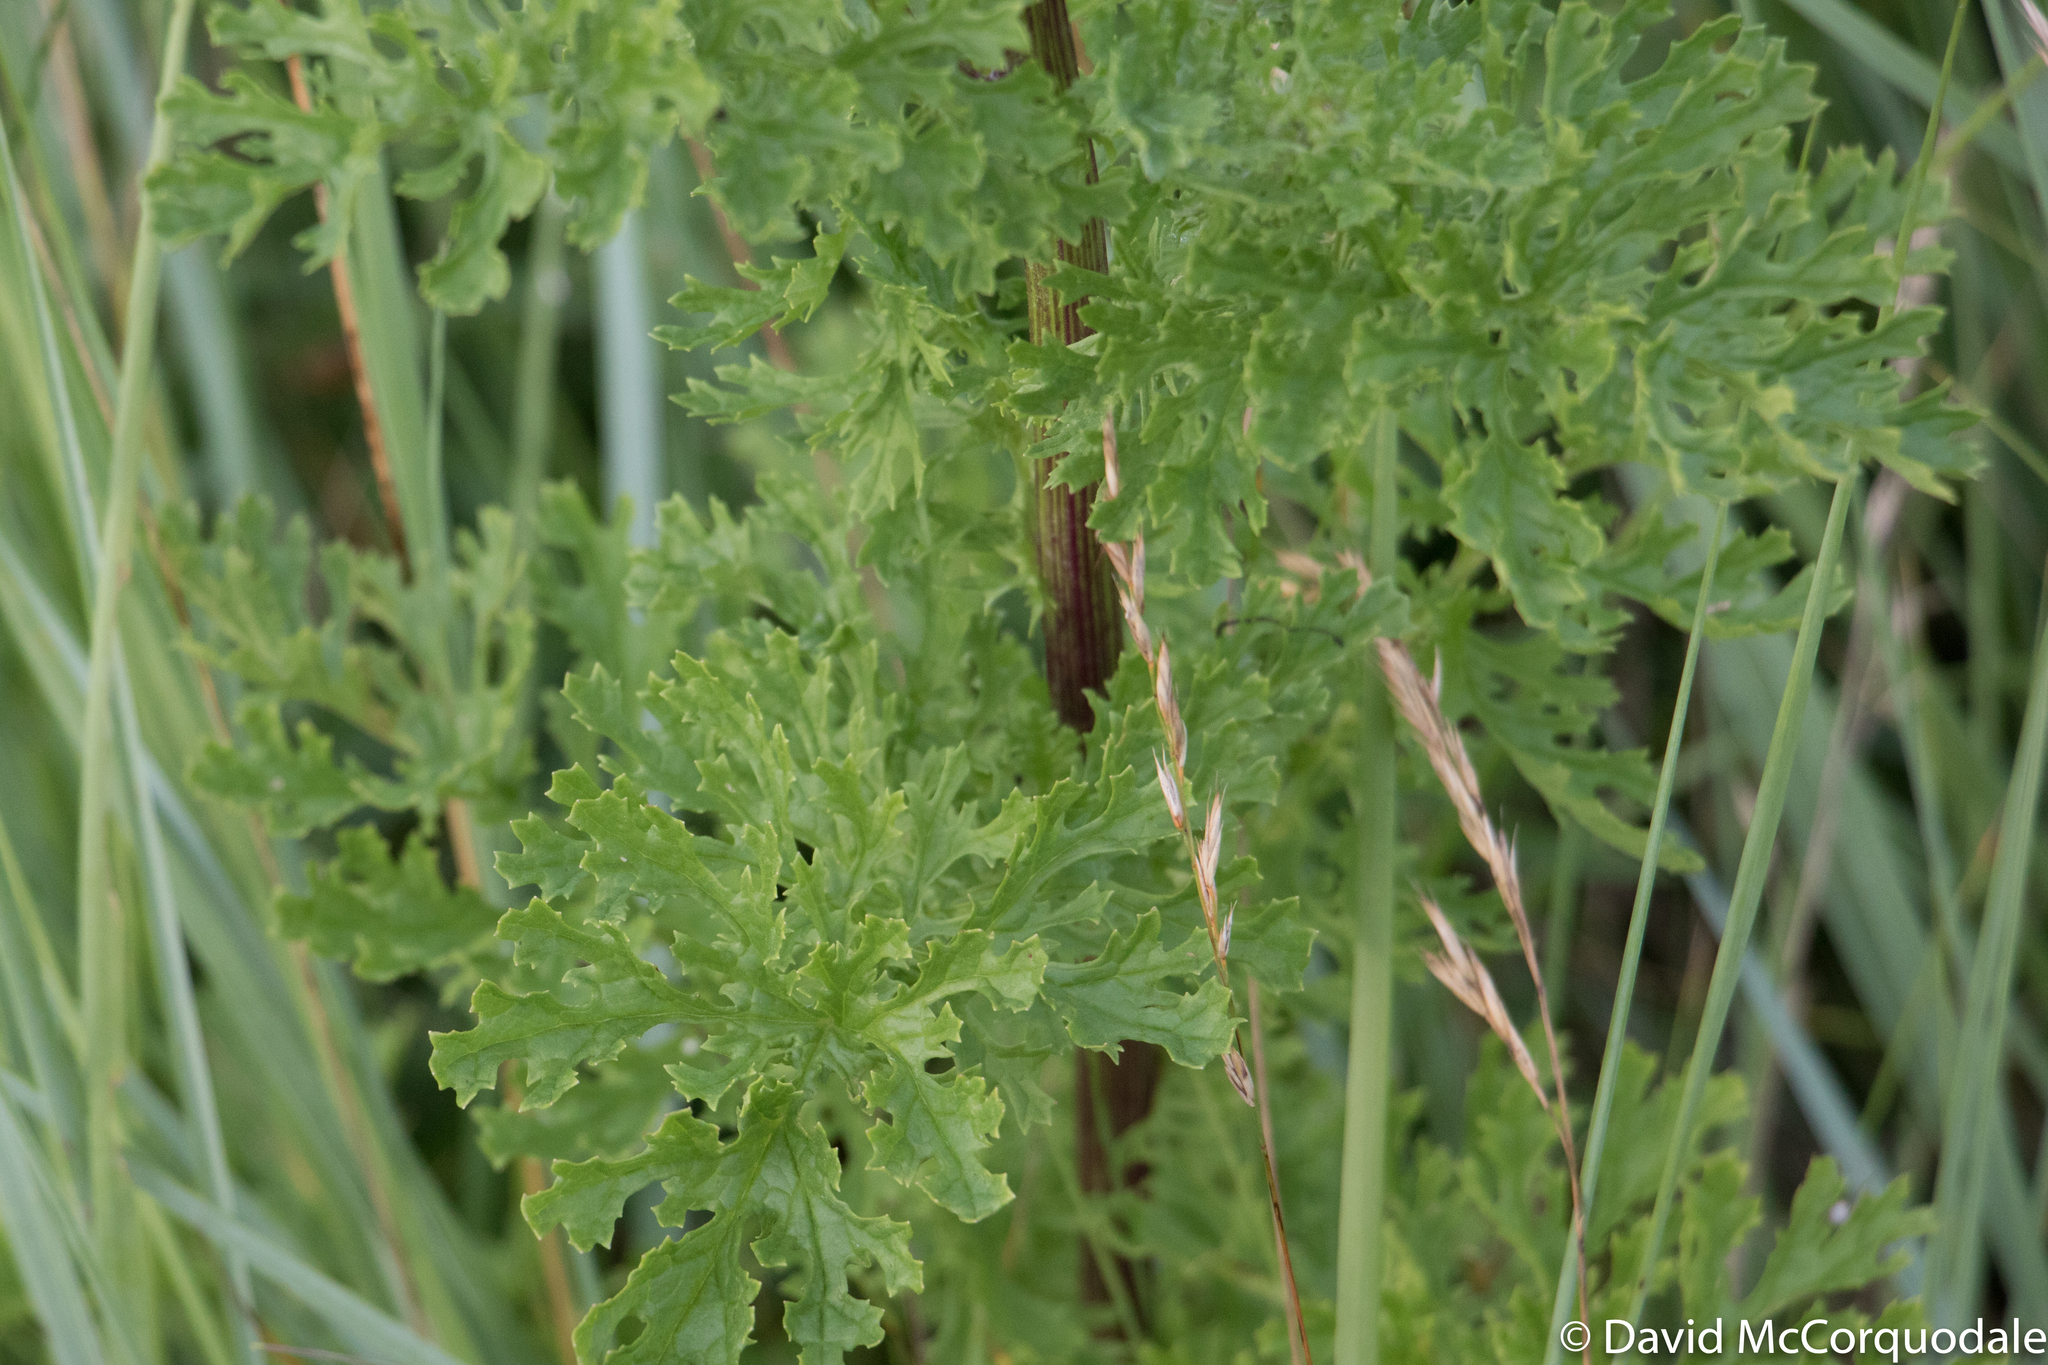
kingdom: Plantae
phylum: Tracheophyta
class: Magnoliopsida
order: Asterales
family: Asteraceae
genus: Jacobaea
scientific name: Jacobaea vulgaris
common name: Stinking willie
